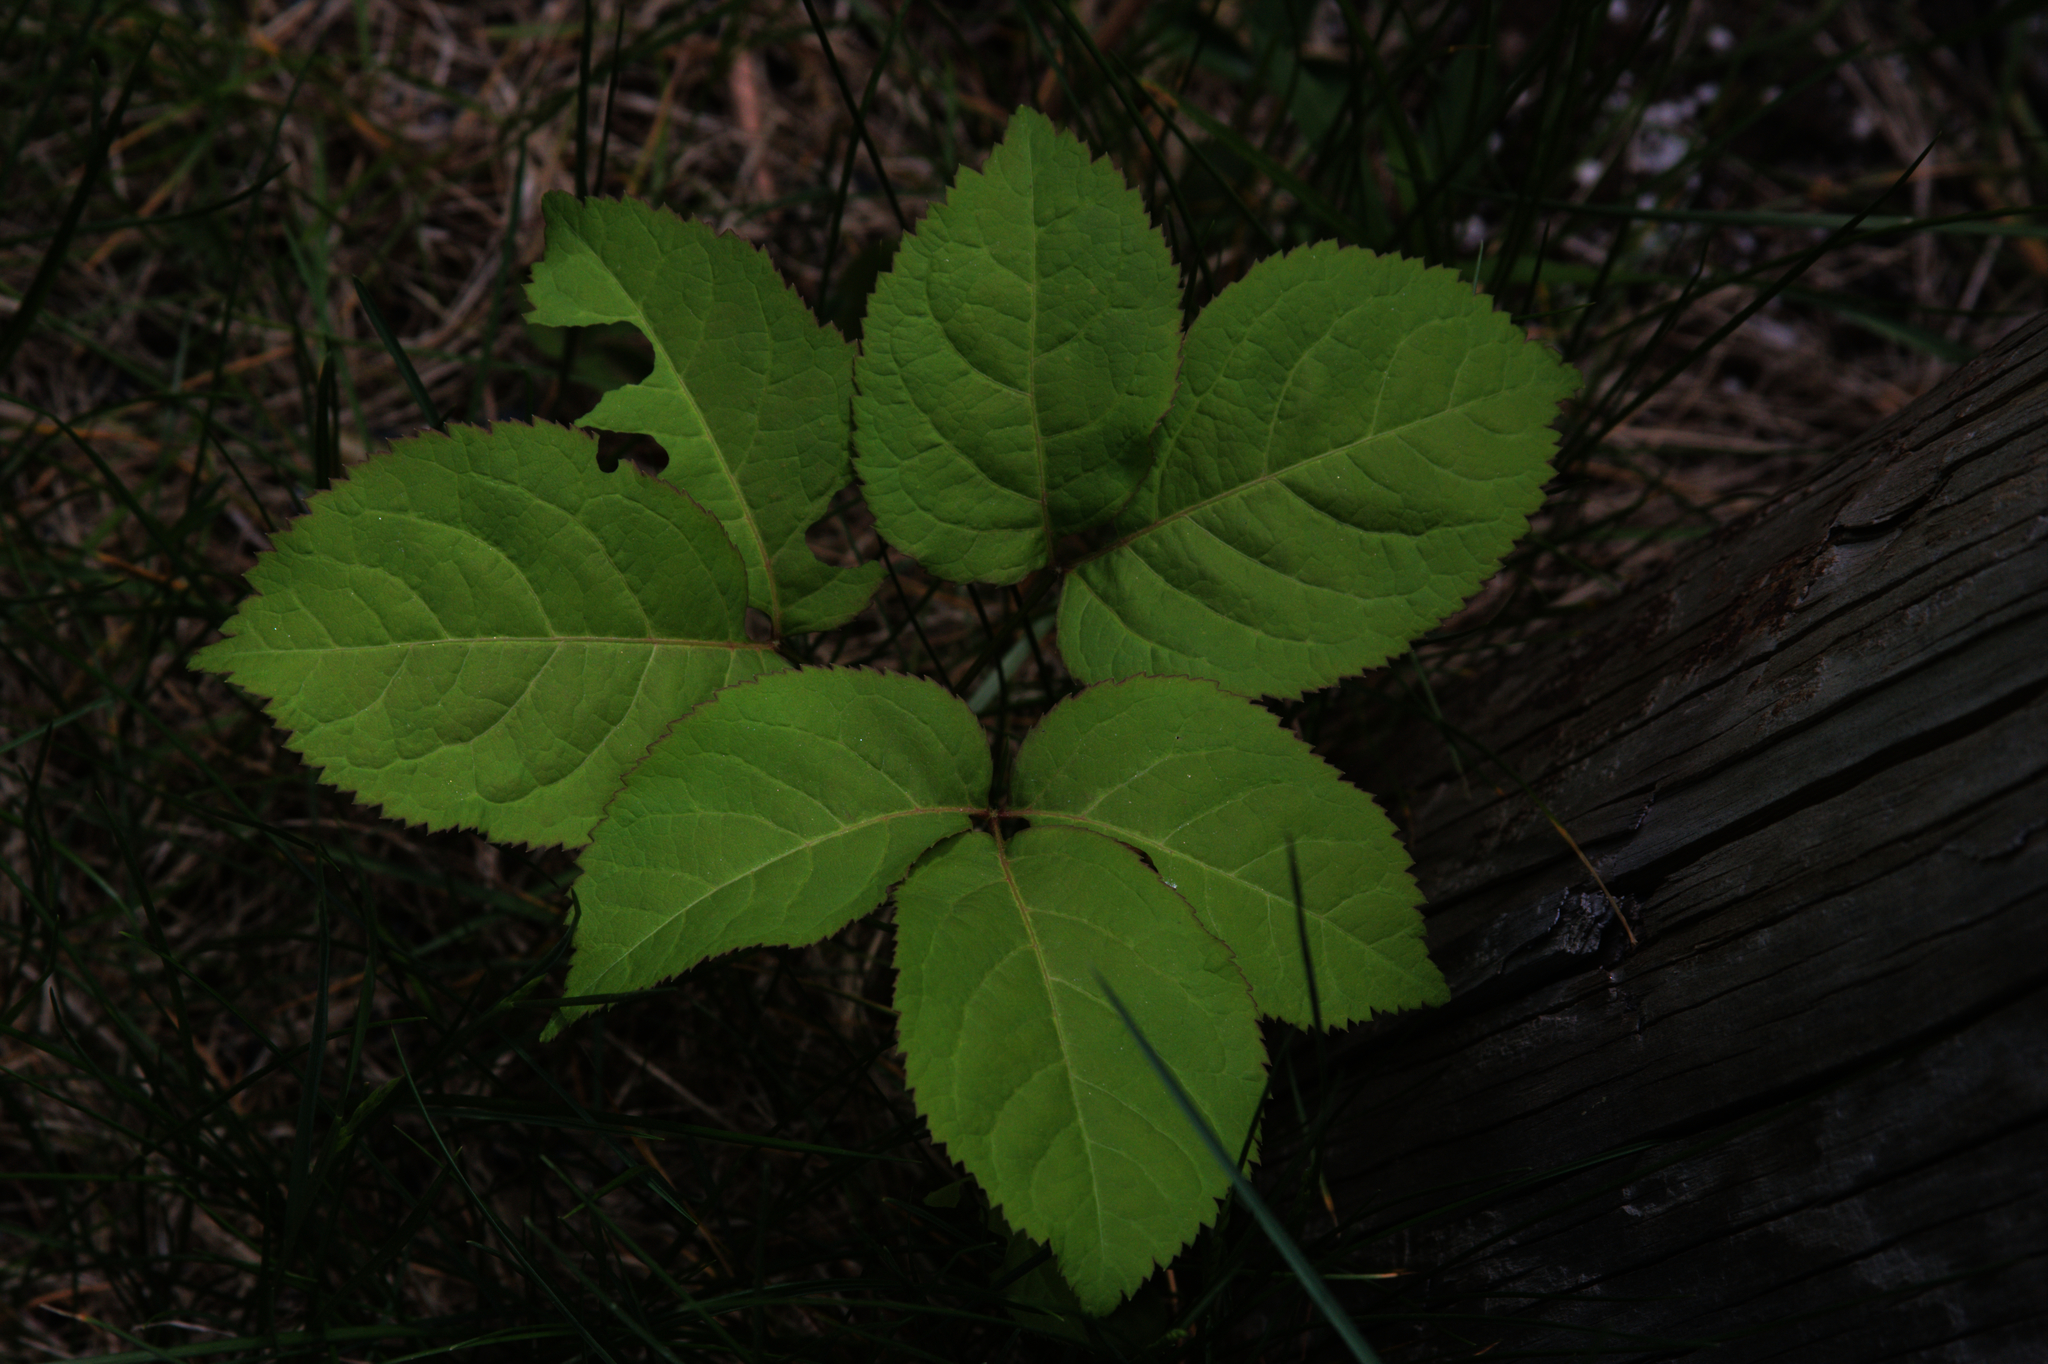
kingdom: Plantae
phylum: Tracheophyta
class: Magnoliopsida
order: Apiales
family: Araliaceae
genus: Aralia
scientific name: Aralia nudicaulis
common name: Wild sarsaparilla
